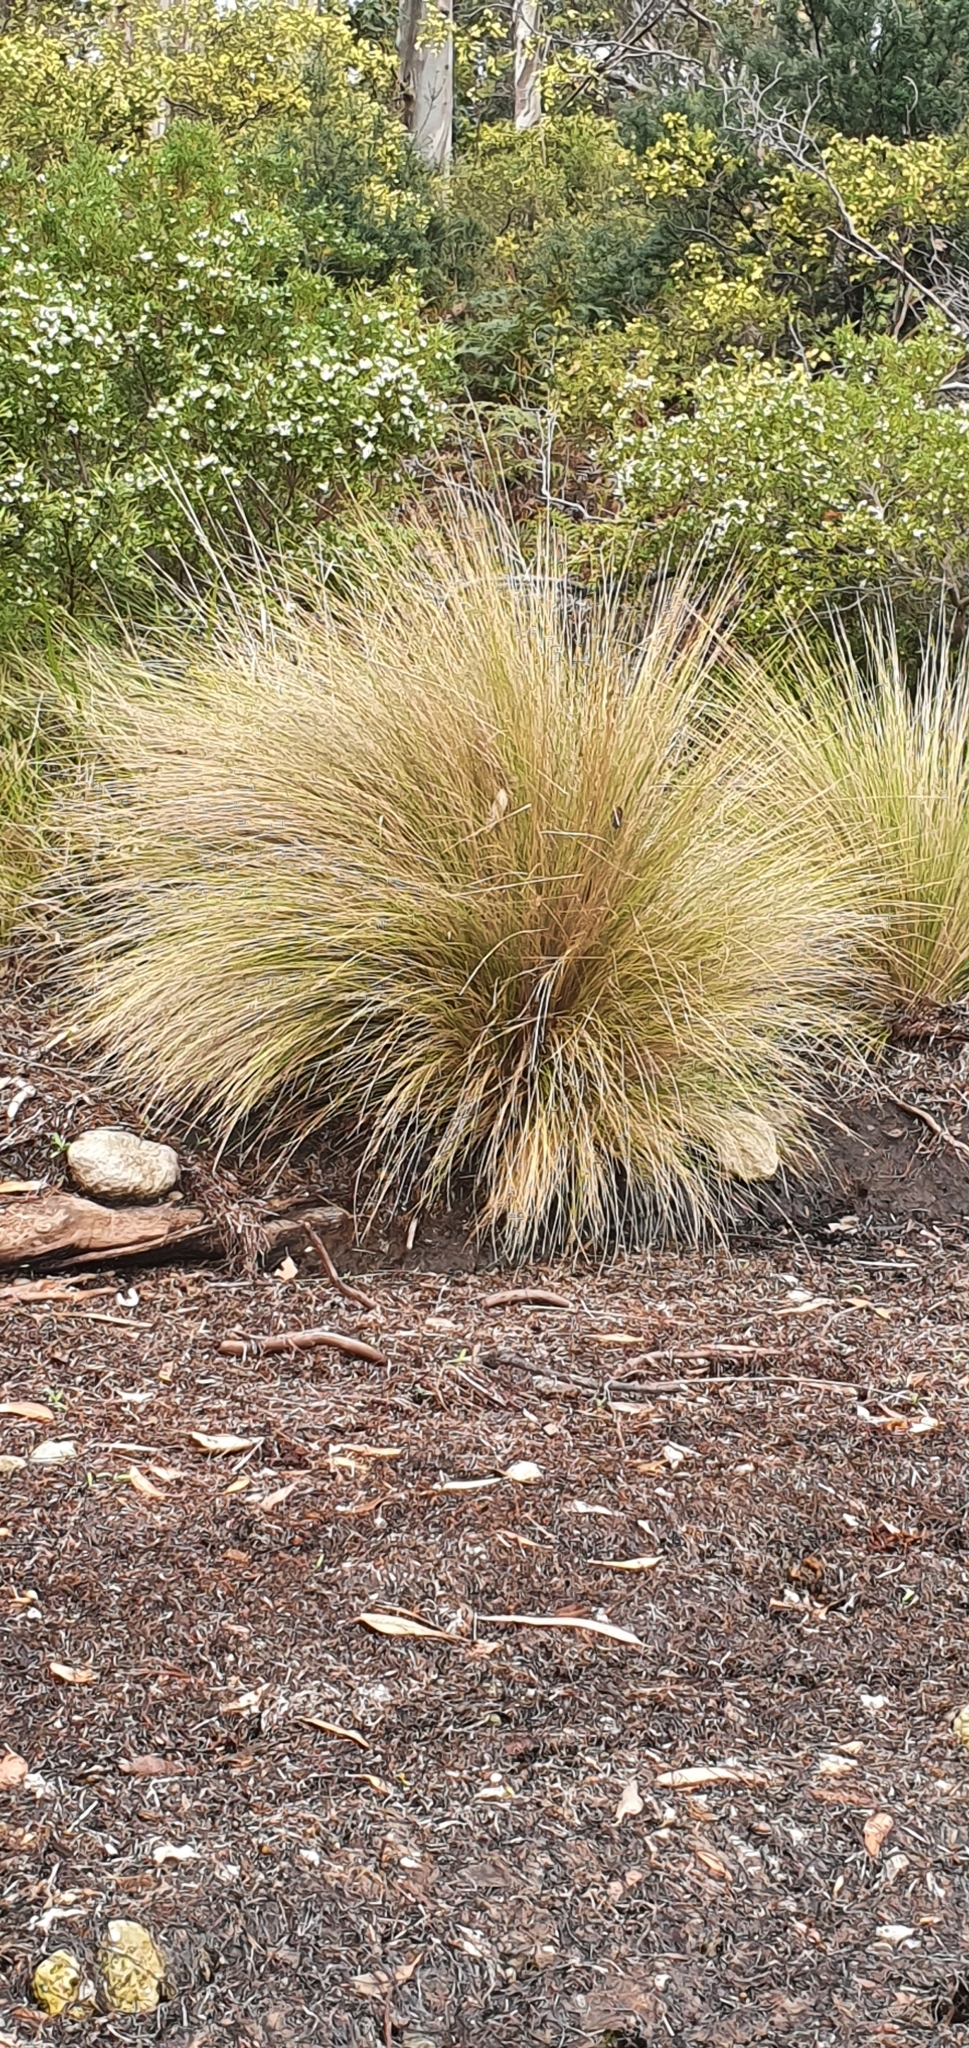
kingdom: Plantae
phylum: Tracheophyta
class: Liliopsida
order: Poales
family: Poaceae
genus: Austrostipa
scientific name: Austrostipa stipoides
